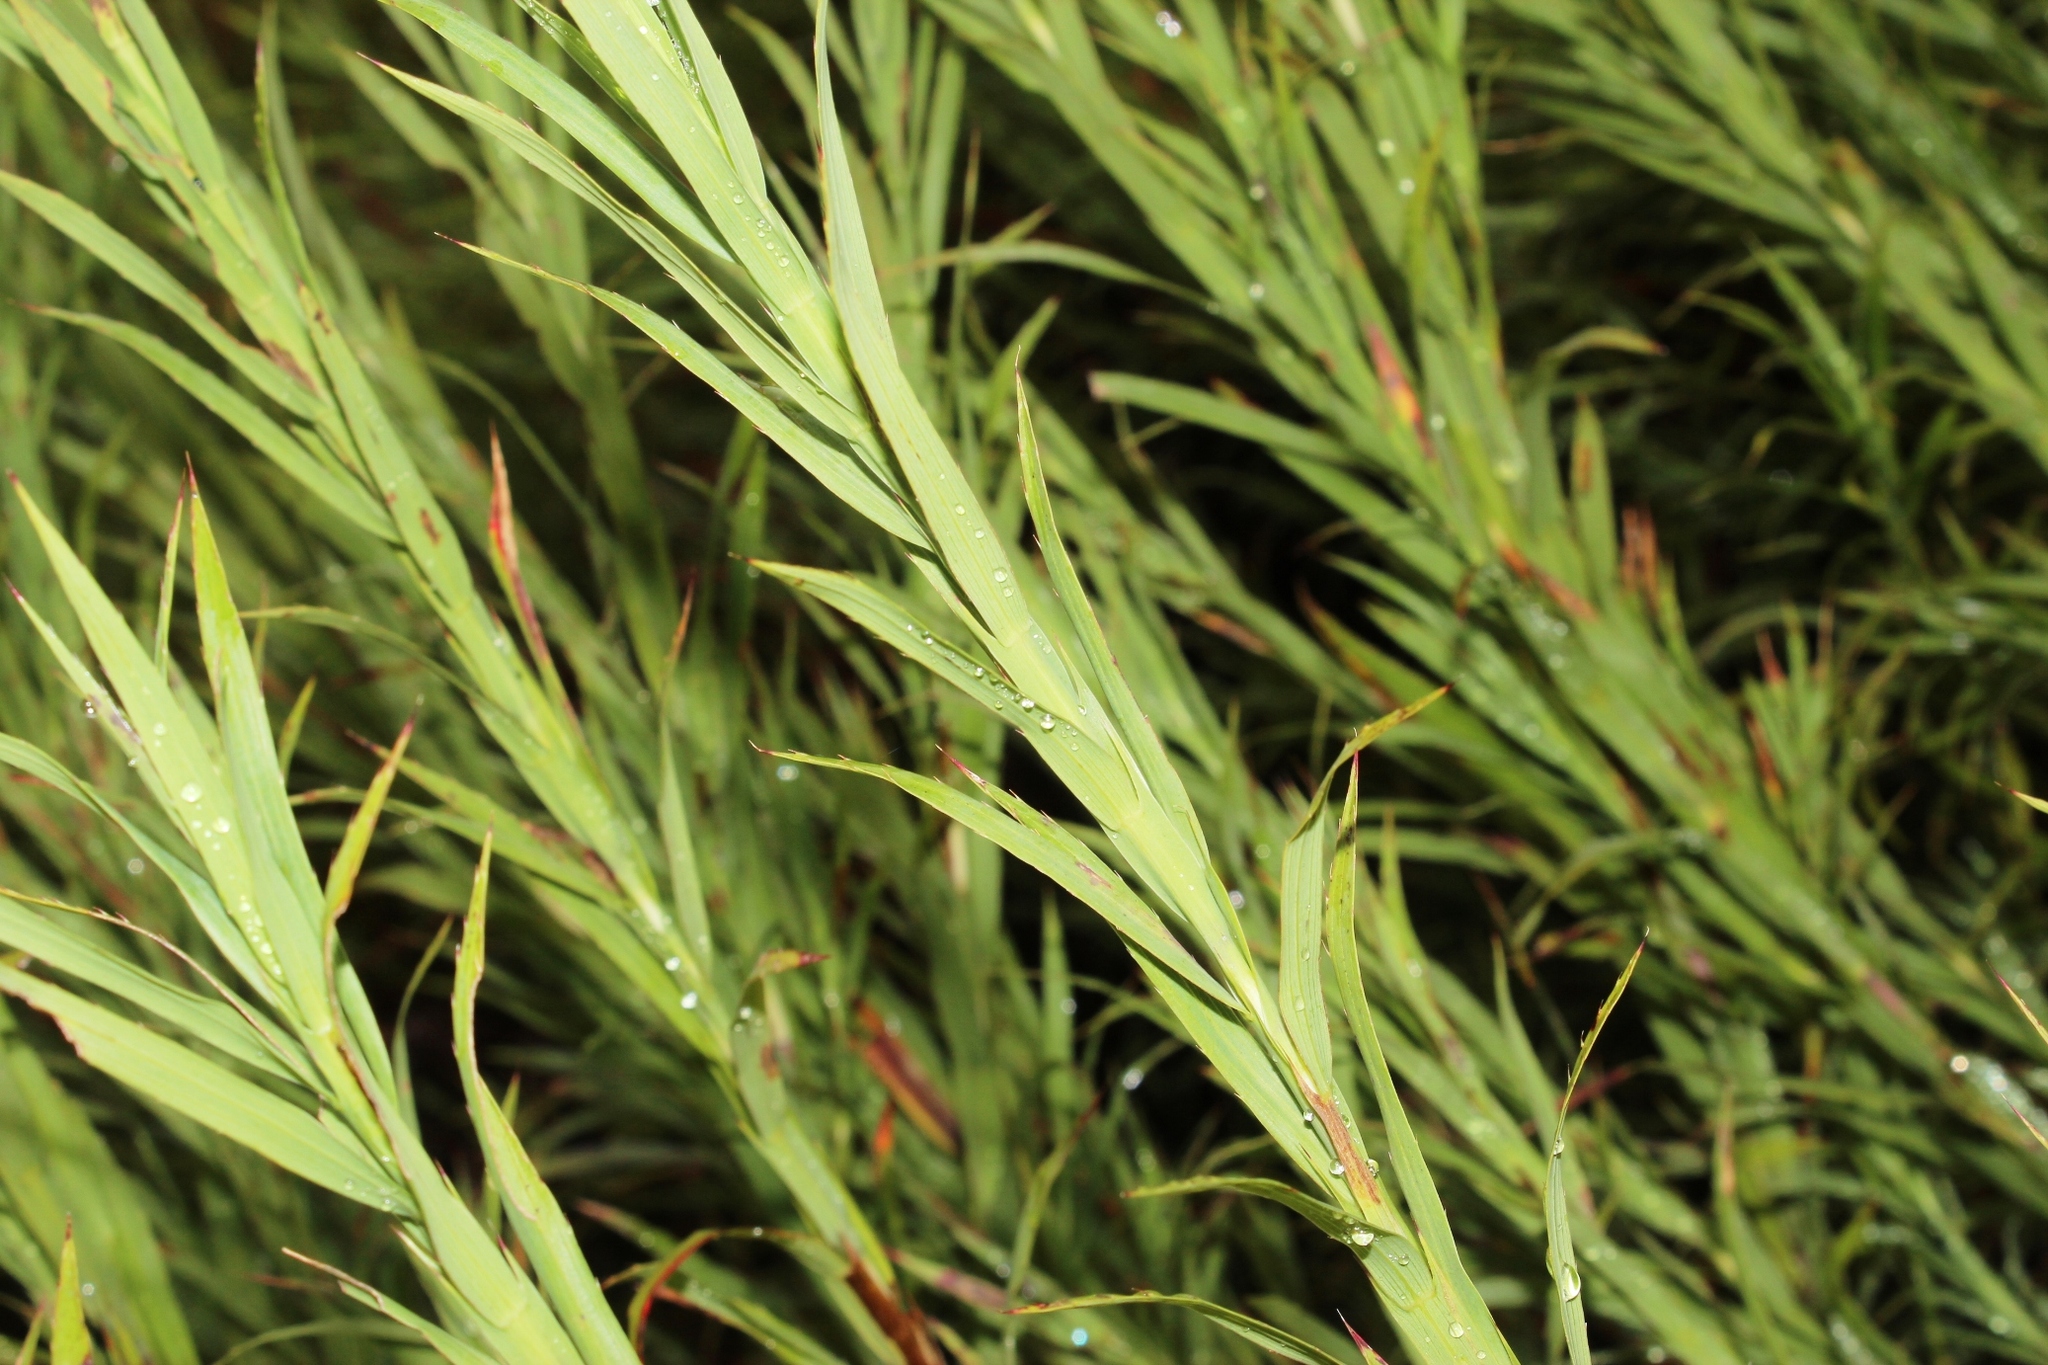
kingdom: Plantae
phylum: Tracheophyta
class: Magnoliopsida
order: Rosales
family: Rosaceae
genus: Cliffortia
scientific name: Cliffortia graminea
